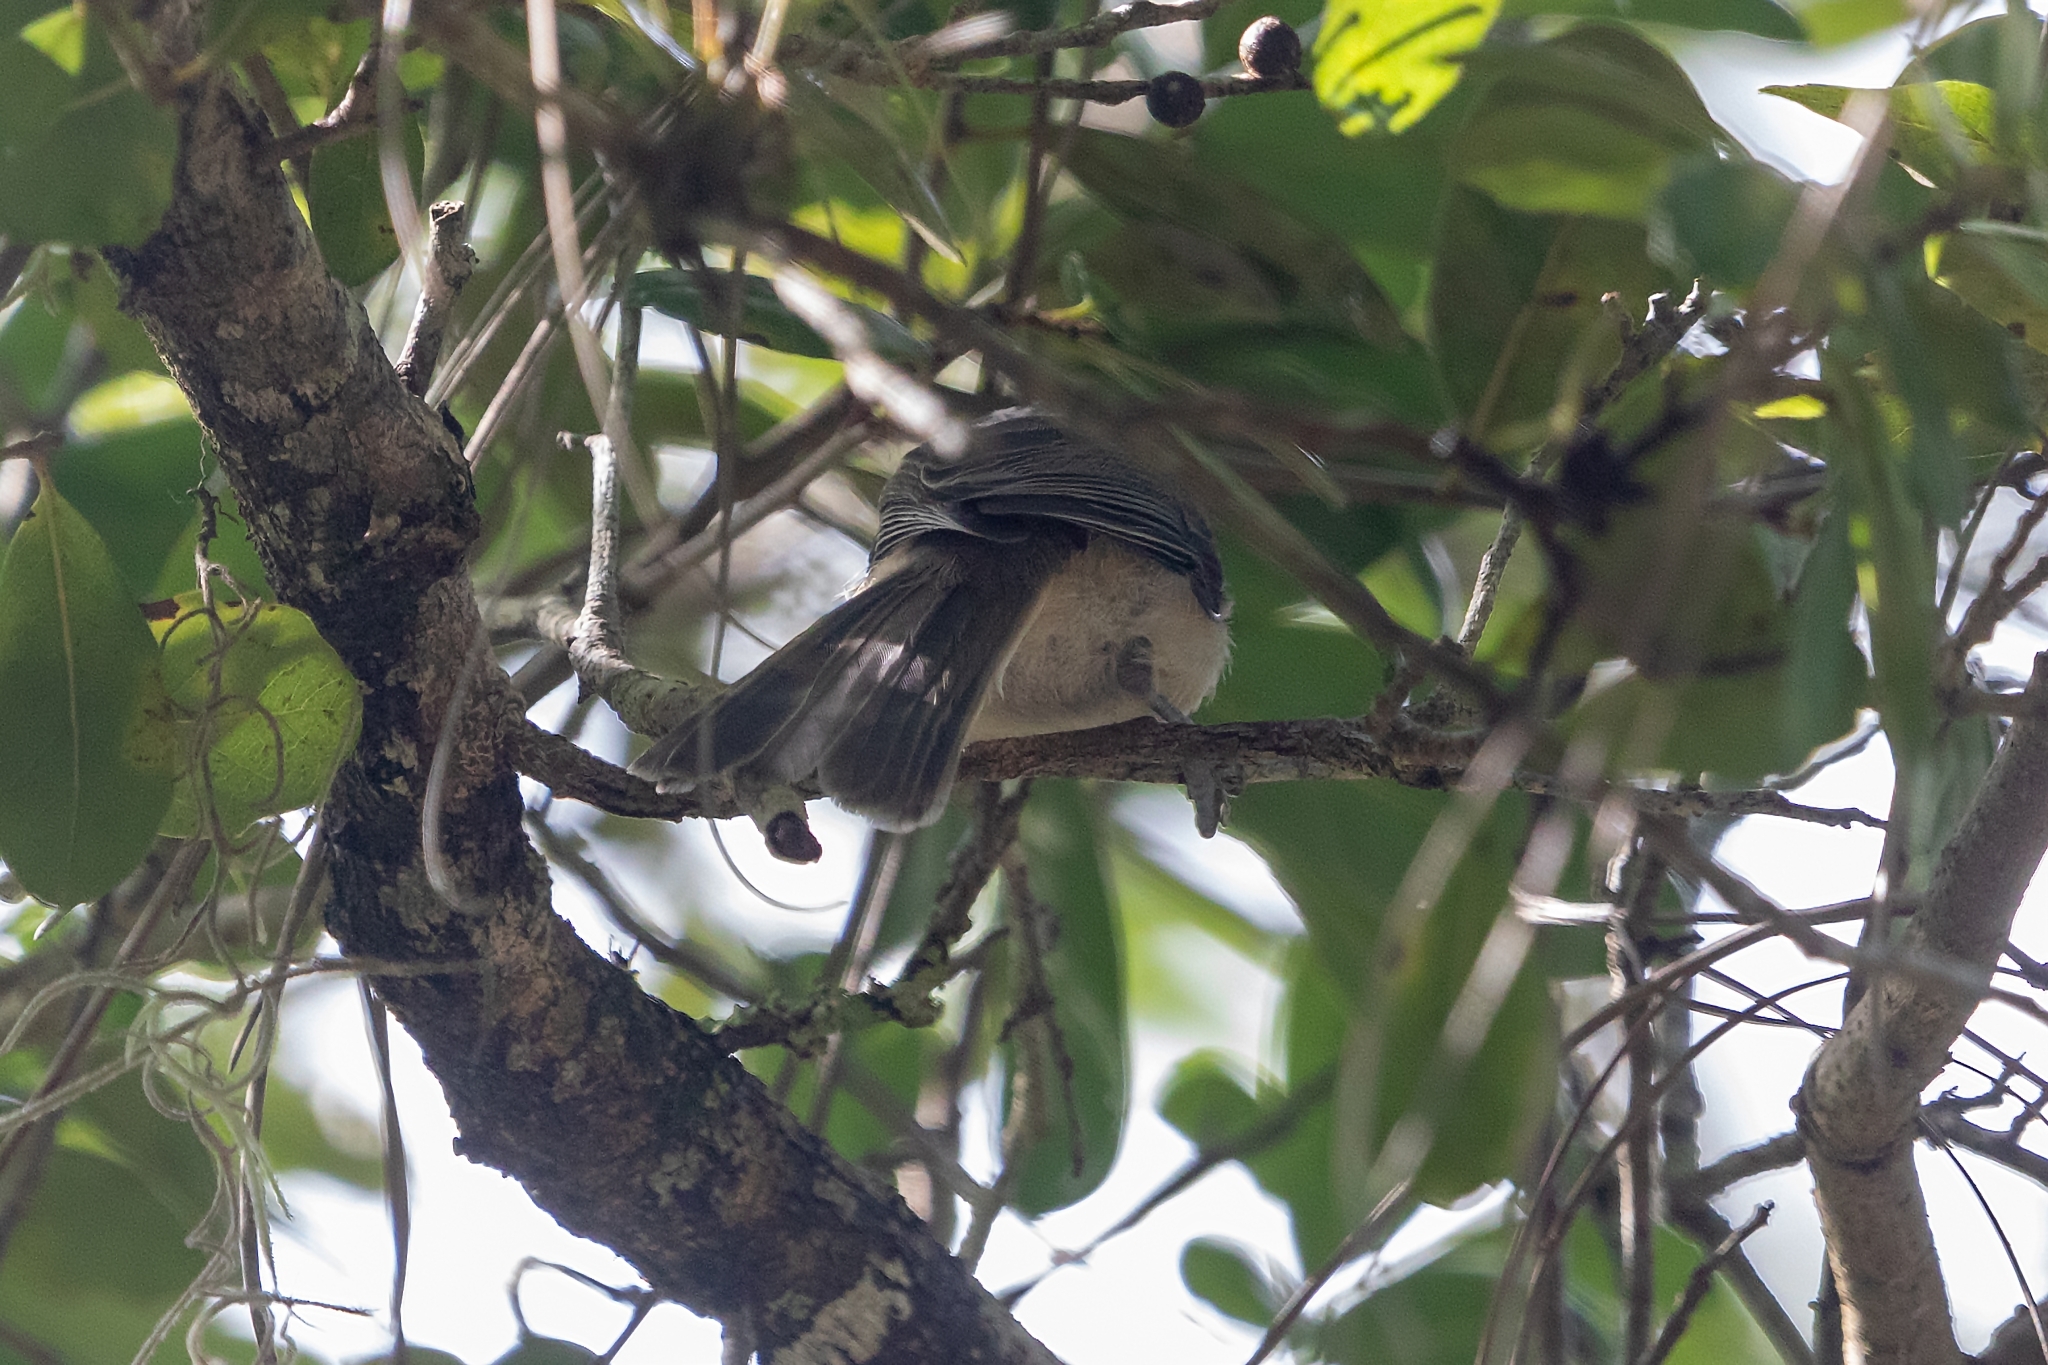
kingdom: Animalia
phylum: Chordata
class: Aves
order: Passeriformes
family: Paridae
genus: Baeolophus
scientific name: Baeolophus bicolor
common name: Tufted titmouse
